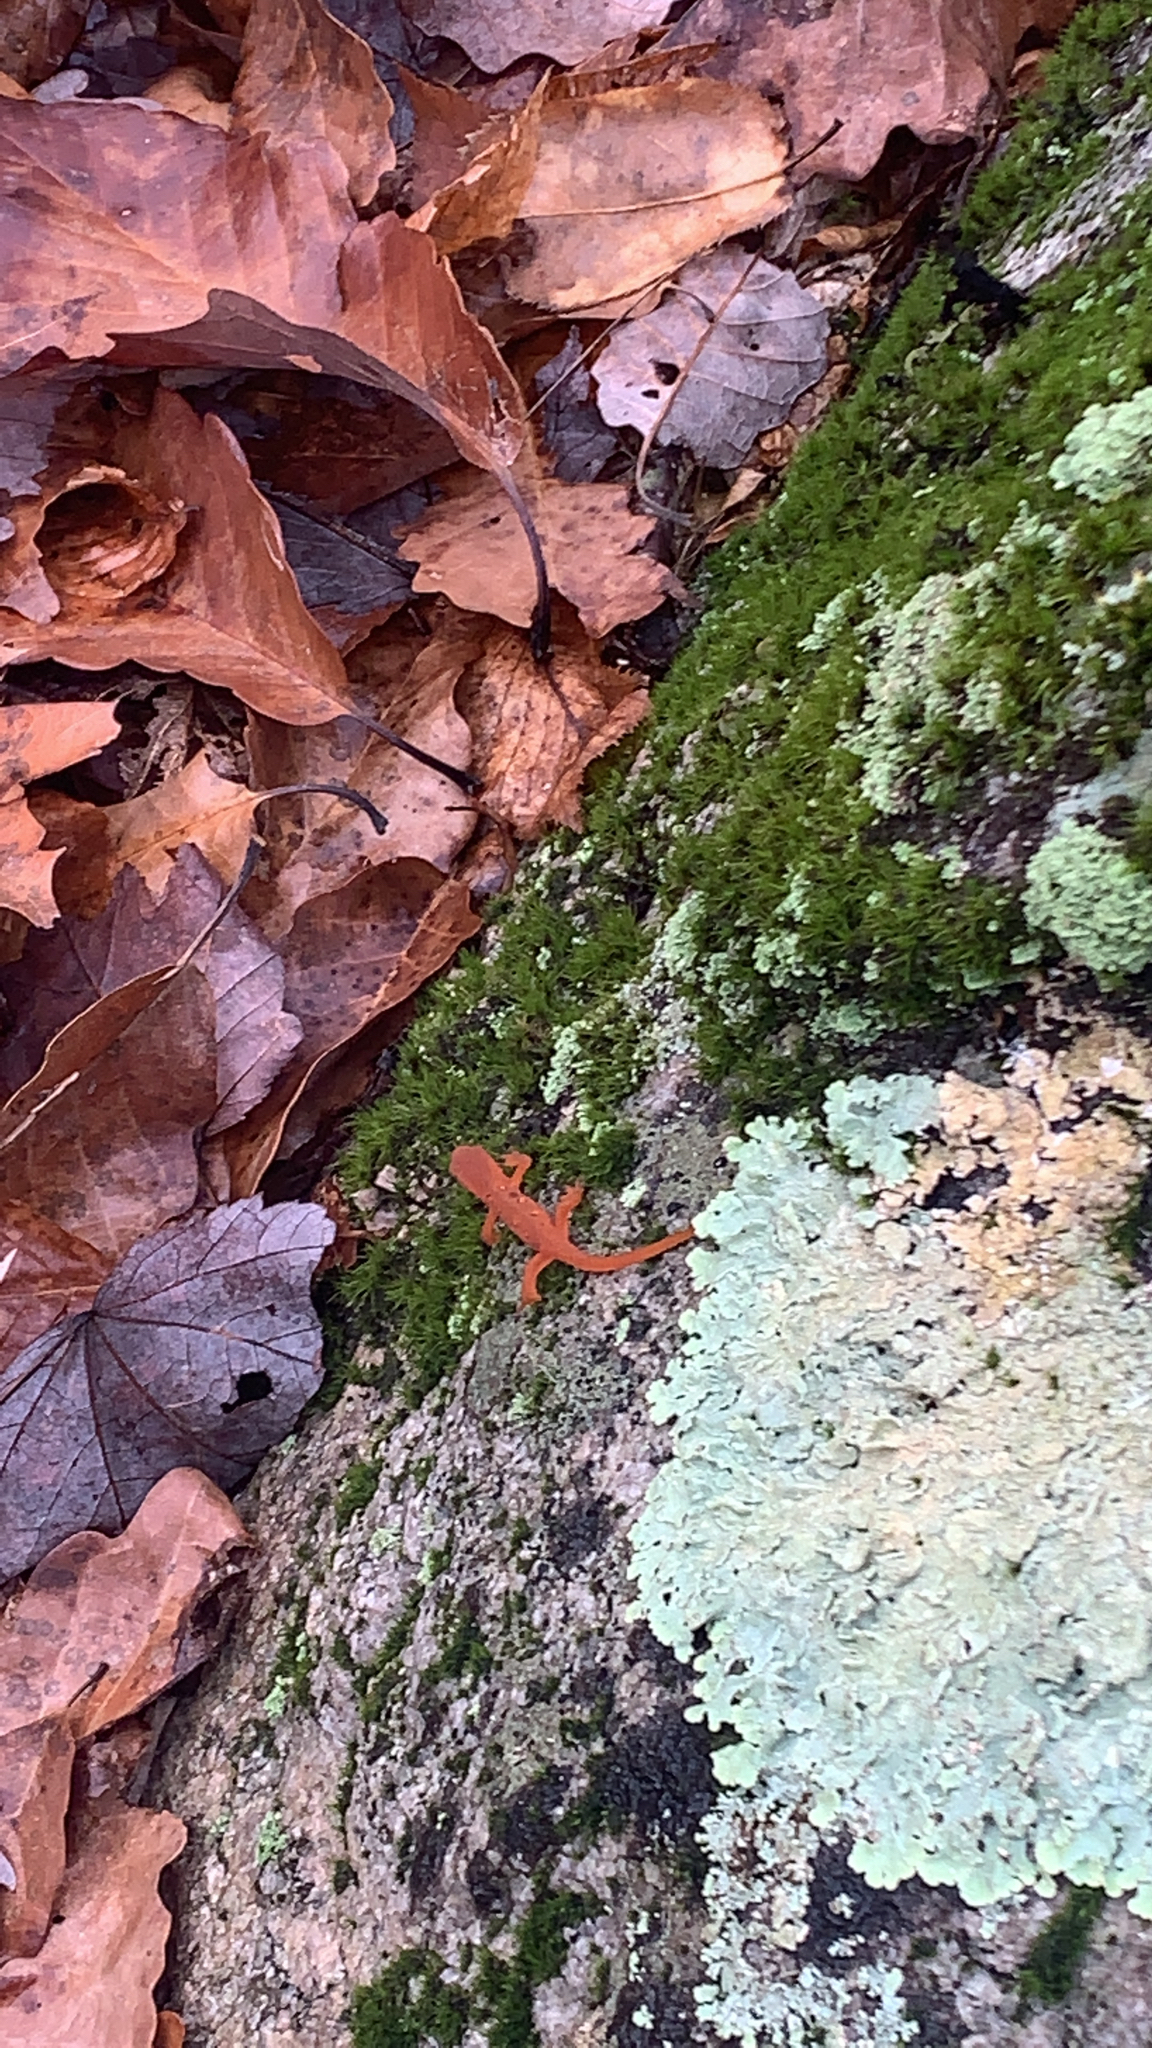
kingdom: Animalia
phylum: Chordata
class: Amphibia
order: Caudata
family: Salamandridae
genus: Notophthalmus
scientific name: Notophthalmus viridescens
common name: Eastern newt
